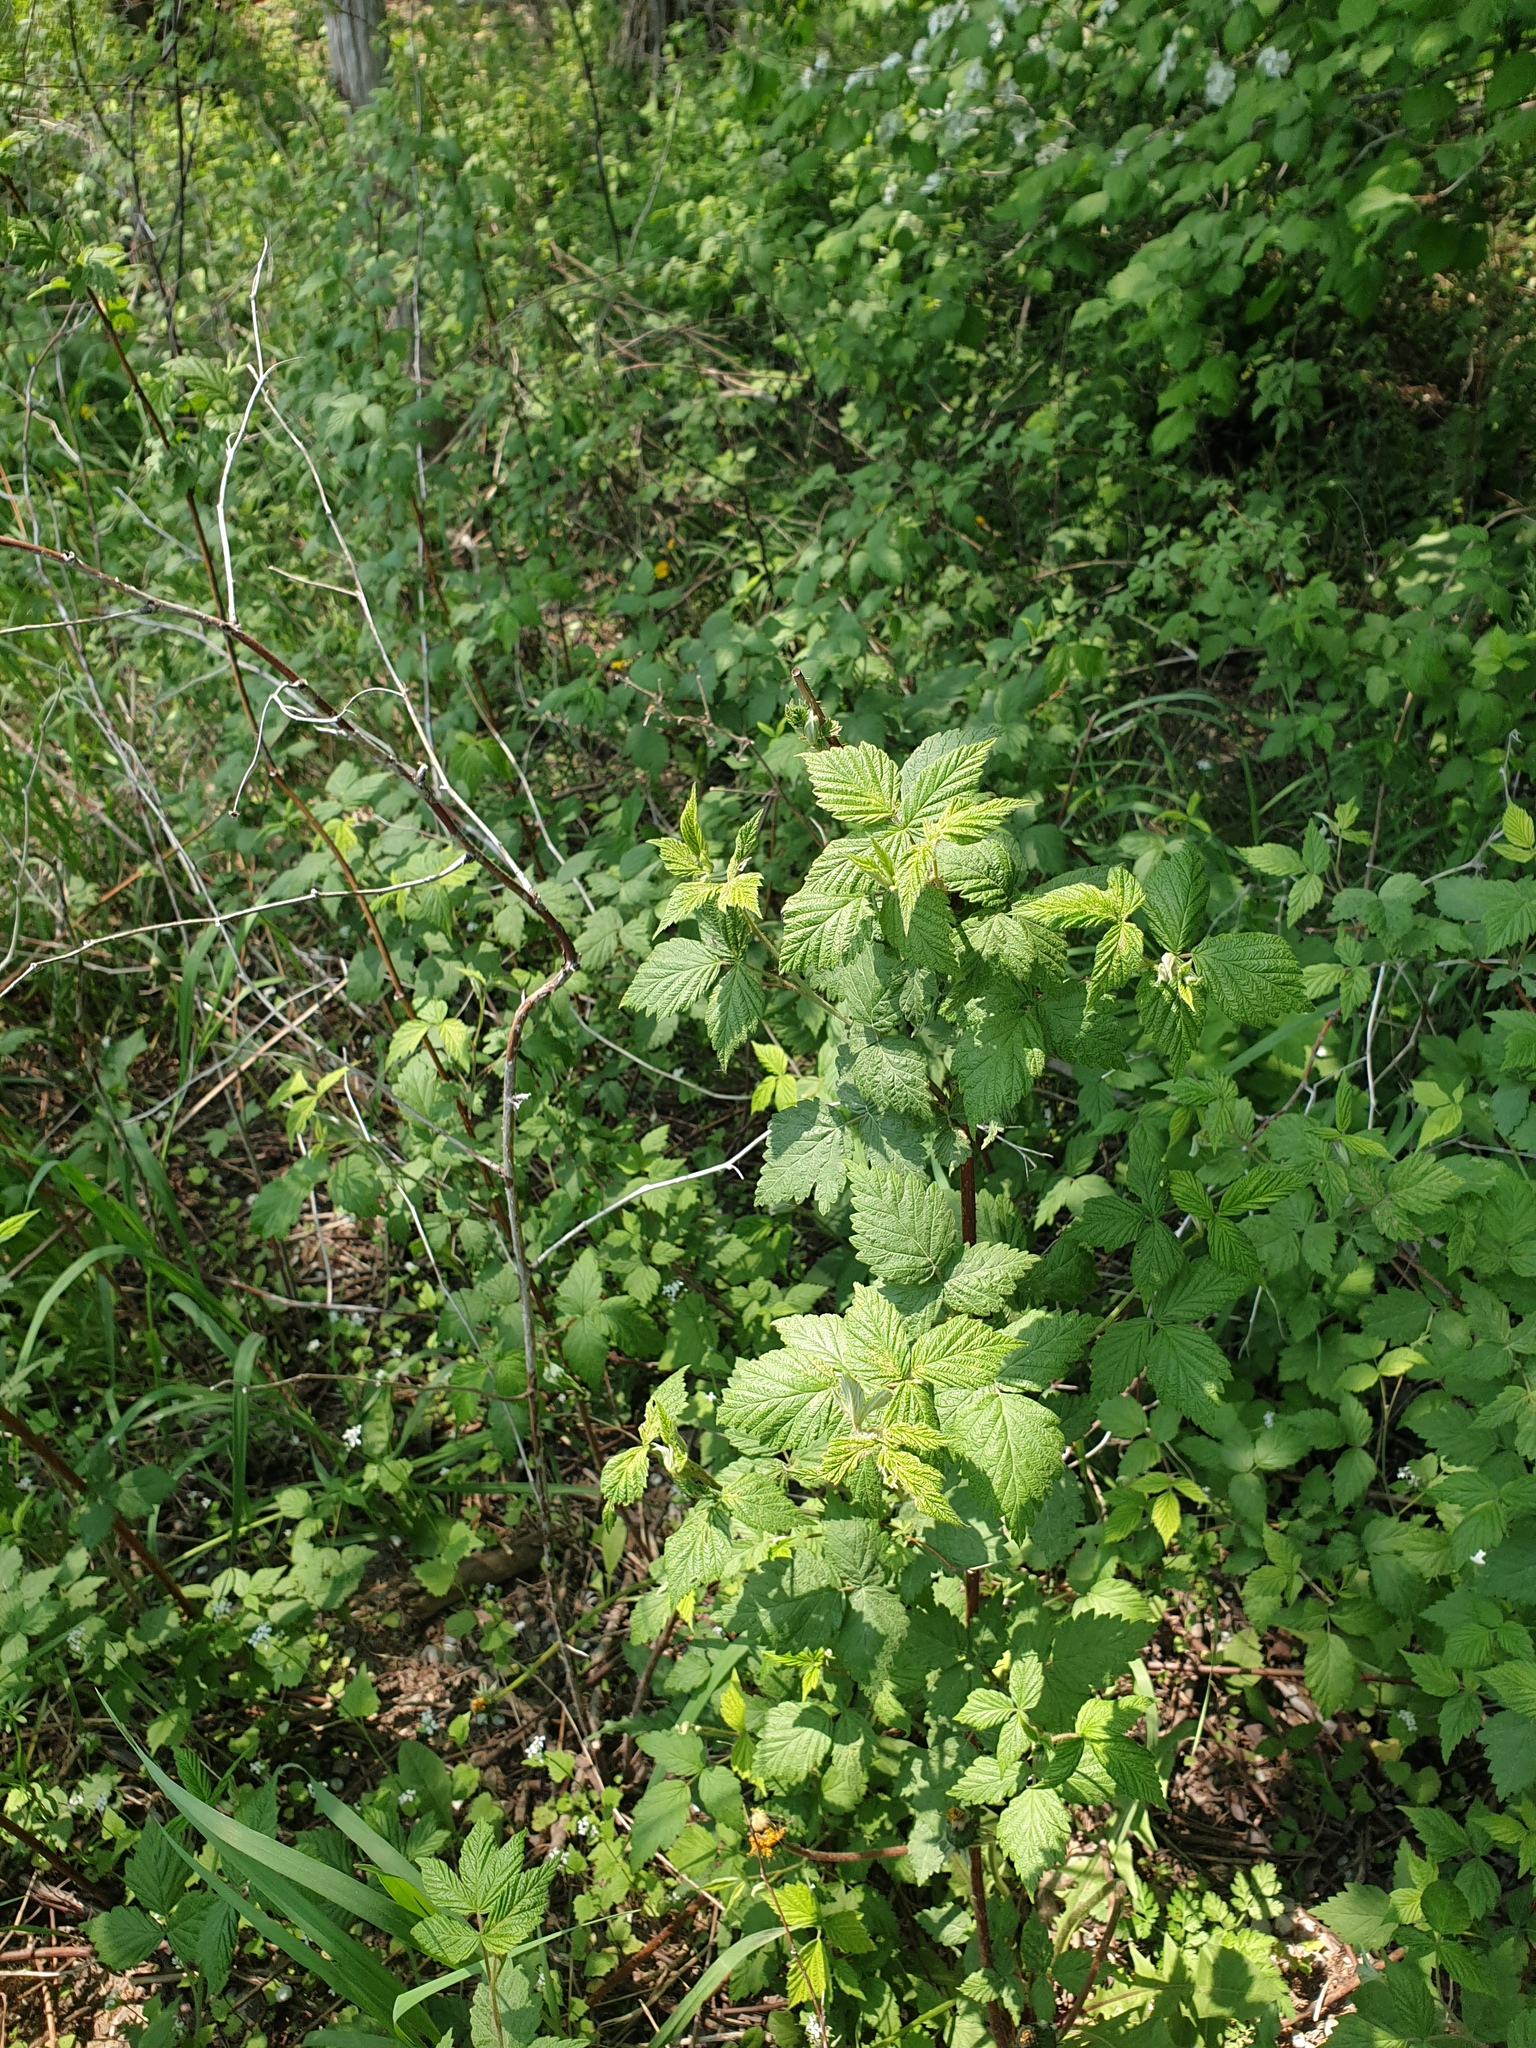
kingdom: Plantae
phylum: Tracheophyta
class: Magnoliopsida
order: Rosales
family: Rosaceae
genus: Rubus
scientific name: Rubus idaeus
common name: Raspberry
